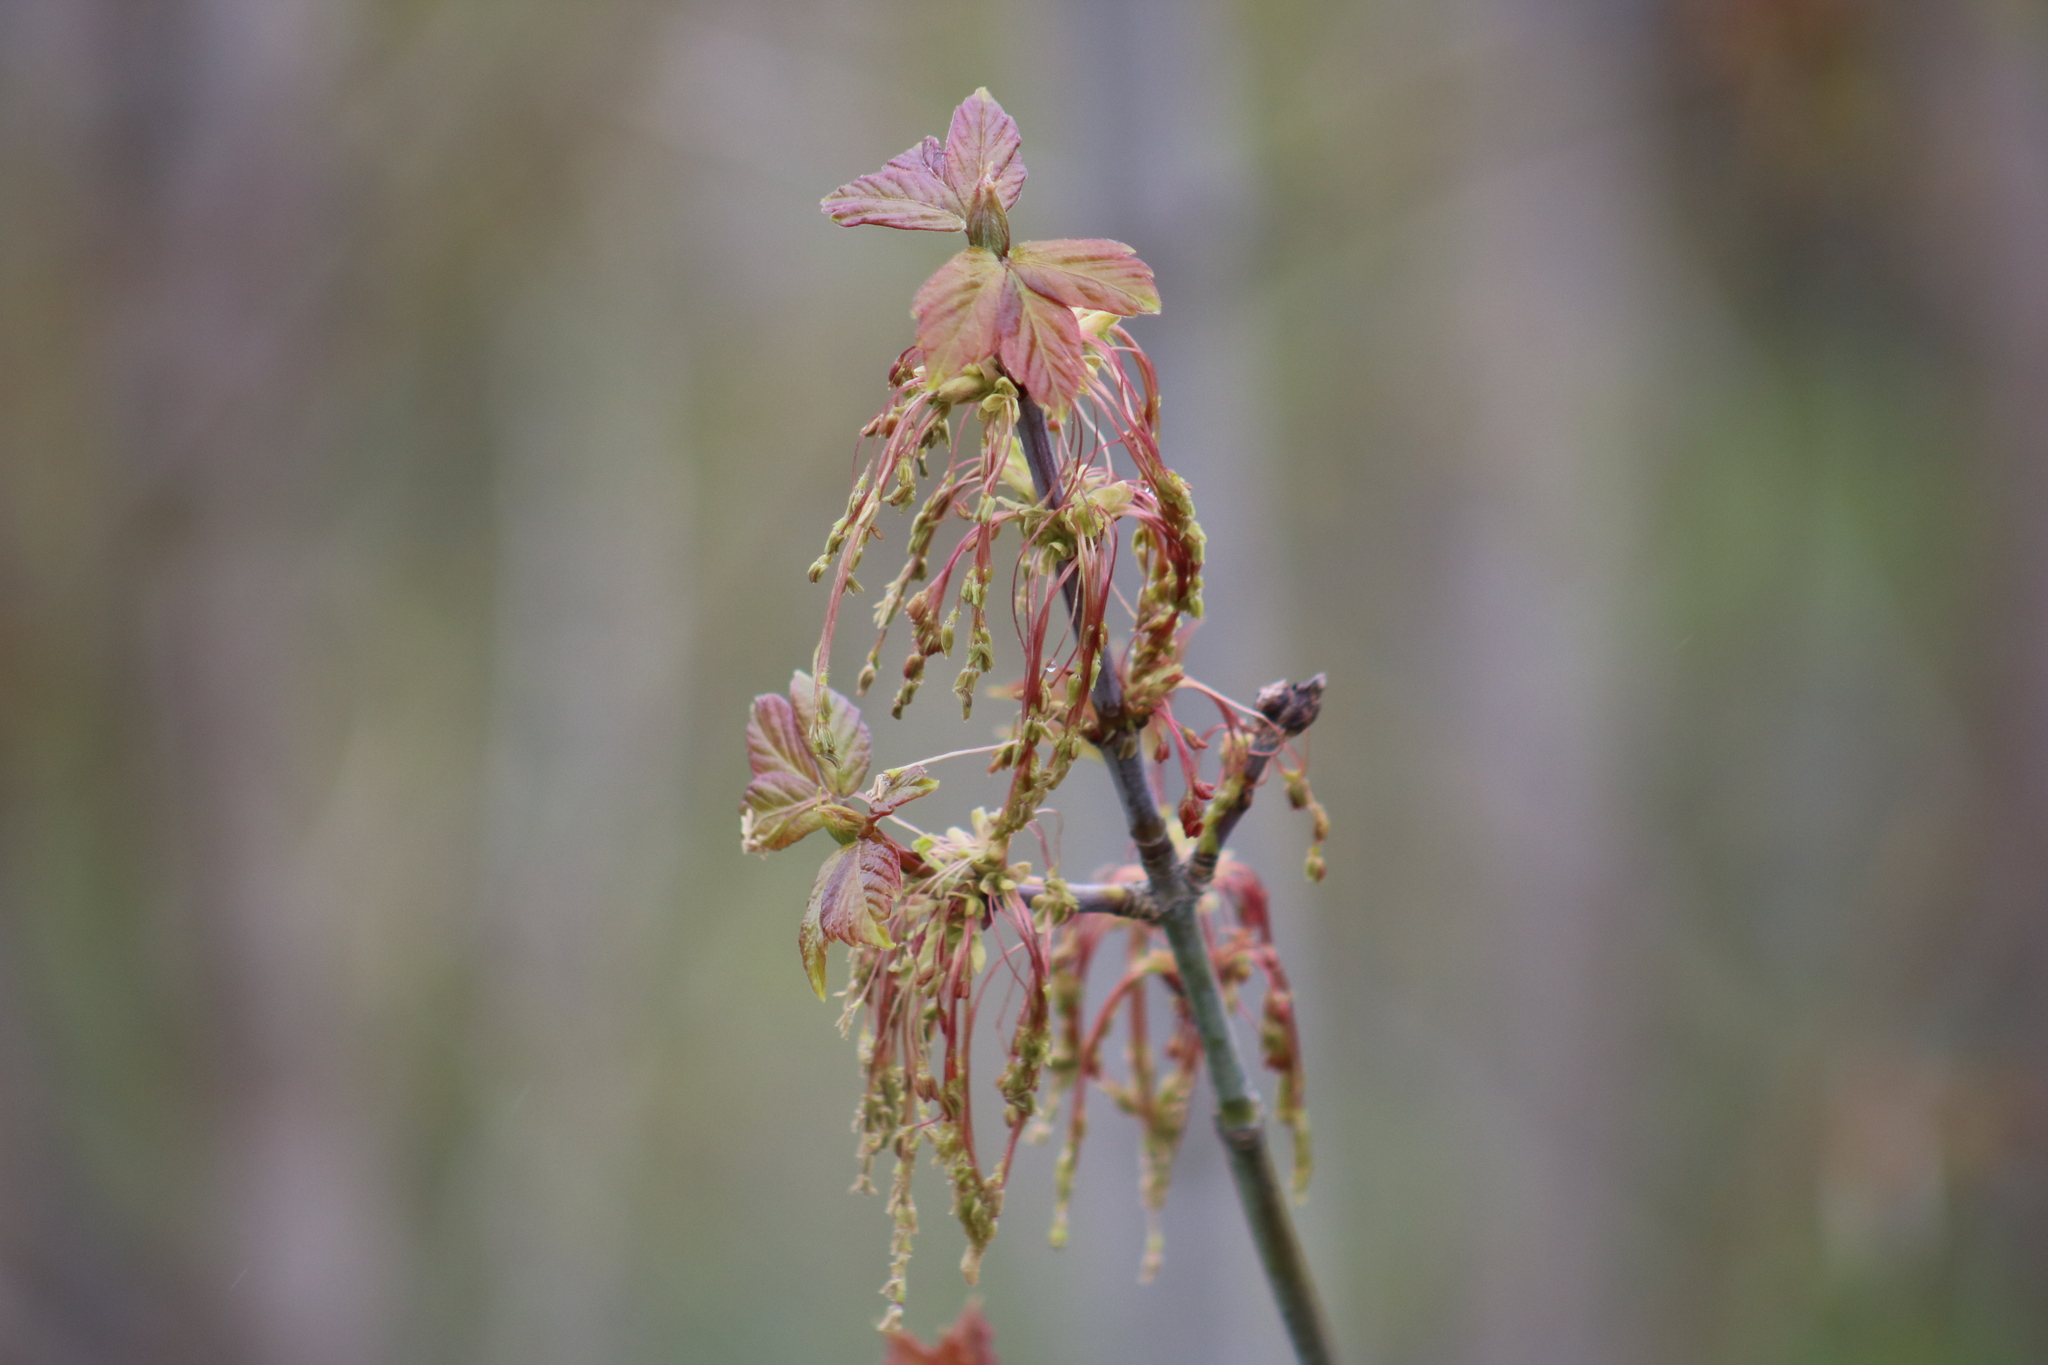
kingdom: Plantae
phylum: Tracheophyta
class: Magnoliopsida
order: Sapindales
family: Sapindaceae
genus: Acer
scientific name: Acer negundo
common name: Ashleaf maple
